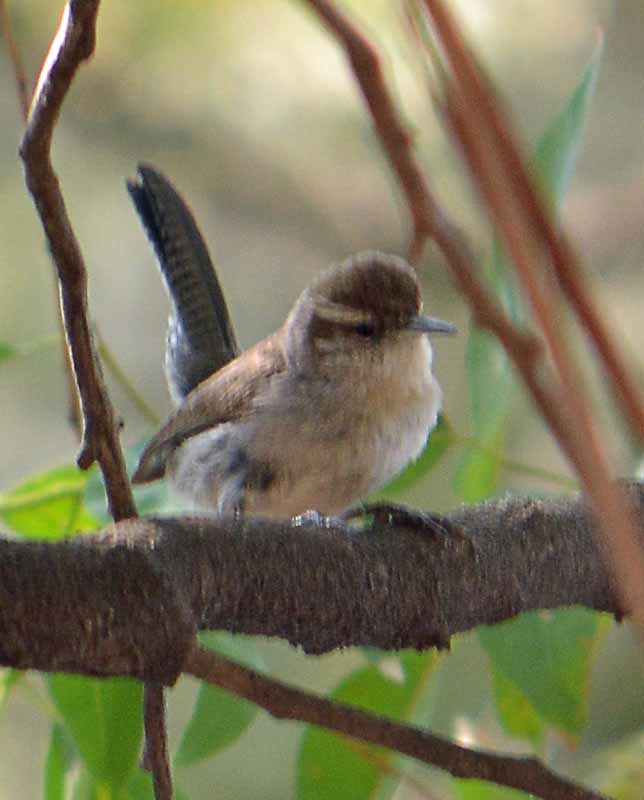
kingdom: Animalia
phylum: Chordata
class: Aves
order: Passeriformes
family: Troglodytidae
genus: Thryomanes
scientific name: Thryomanes bewickii
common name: Bewick's wren
